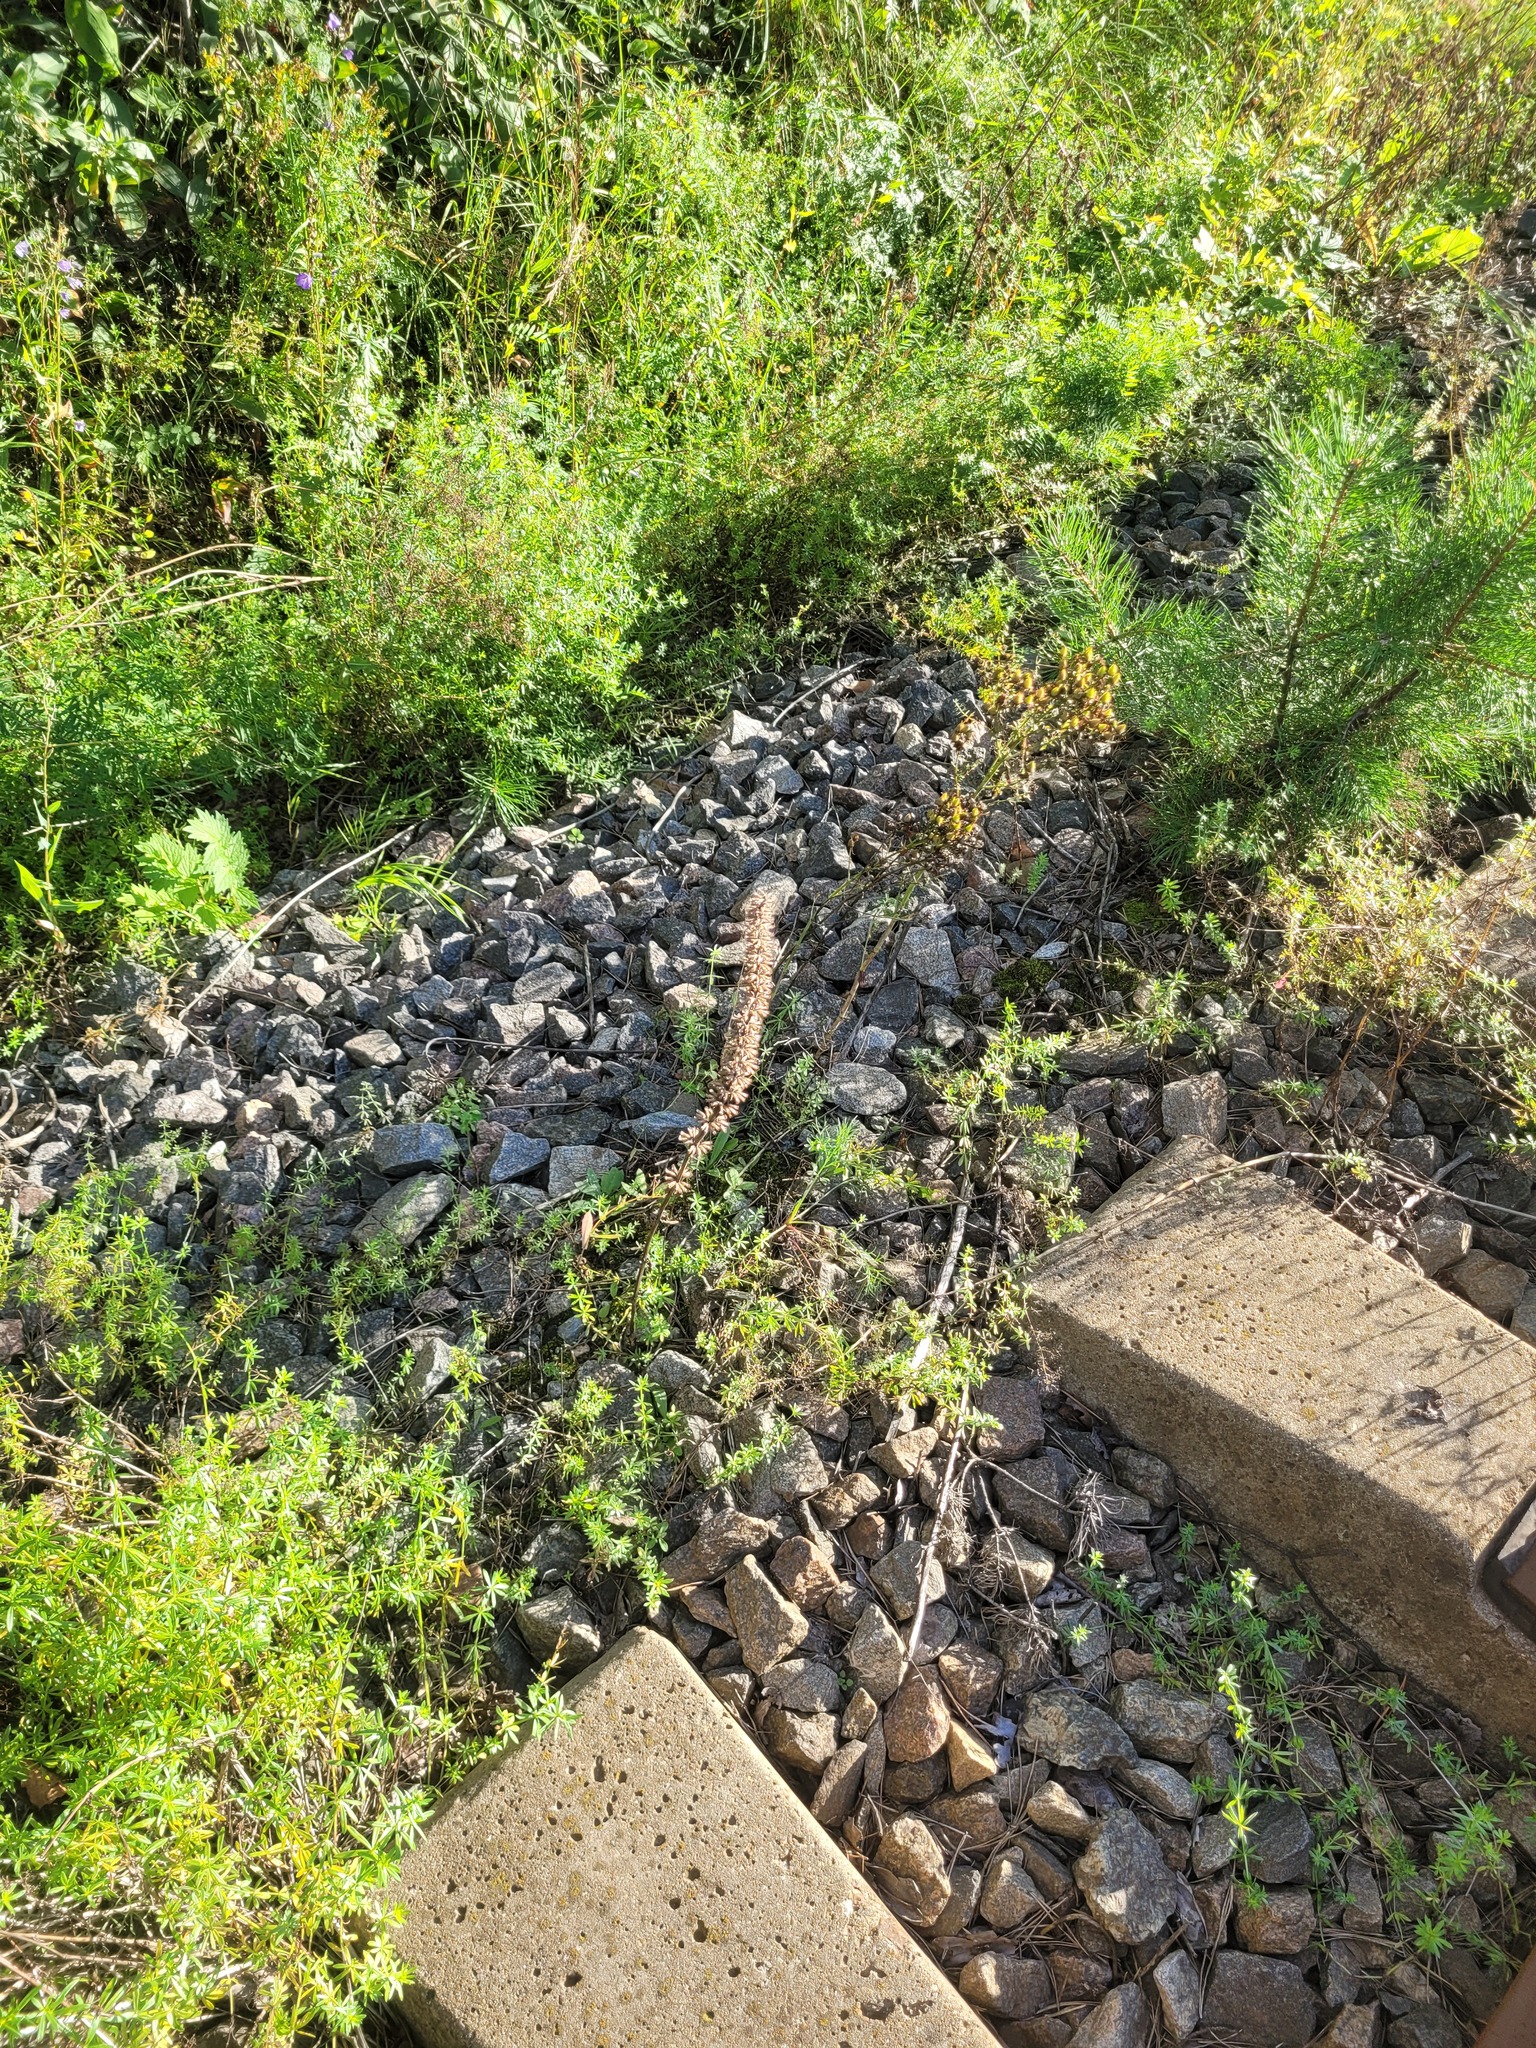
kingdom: Plantae
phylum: Tracheophyta
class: Magnoliopsida
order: Lamiales
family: Lamiaceae
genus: Dracocephalum
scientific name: Dracocephalum thymiflorum
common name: Thymeleaf dragonhead
